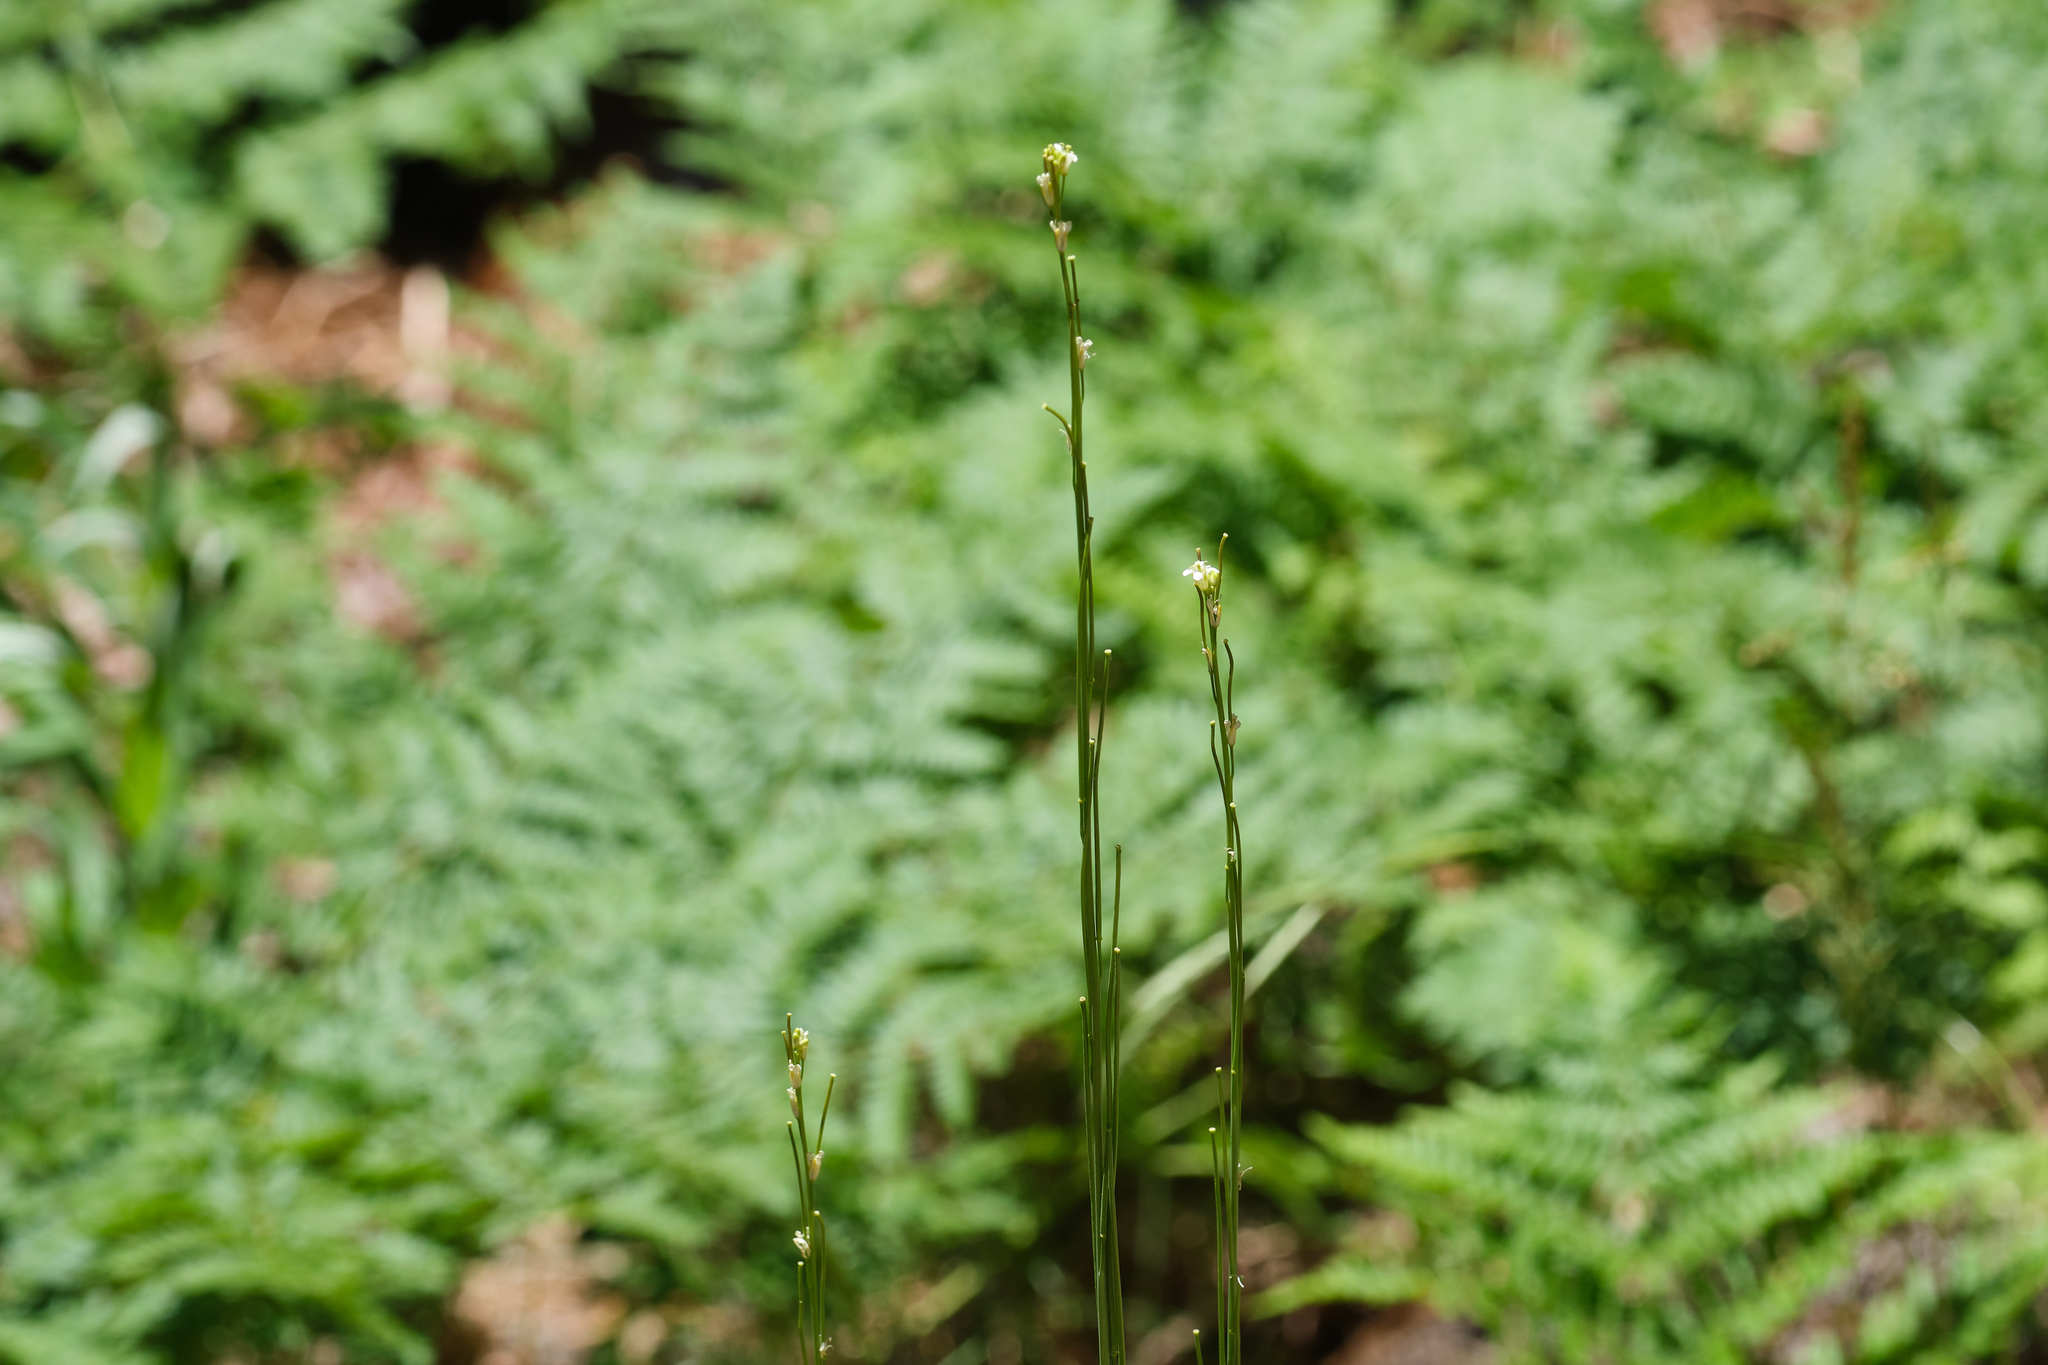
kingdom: Plantae
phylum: Tracheophyta
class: Magnoliopsida
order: Brassicales
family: Brassicaceae
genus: Turritis
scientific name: Turritis glabra
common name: Tower rockcress
